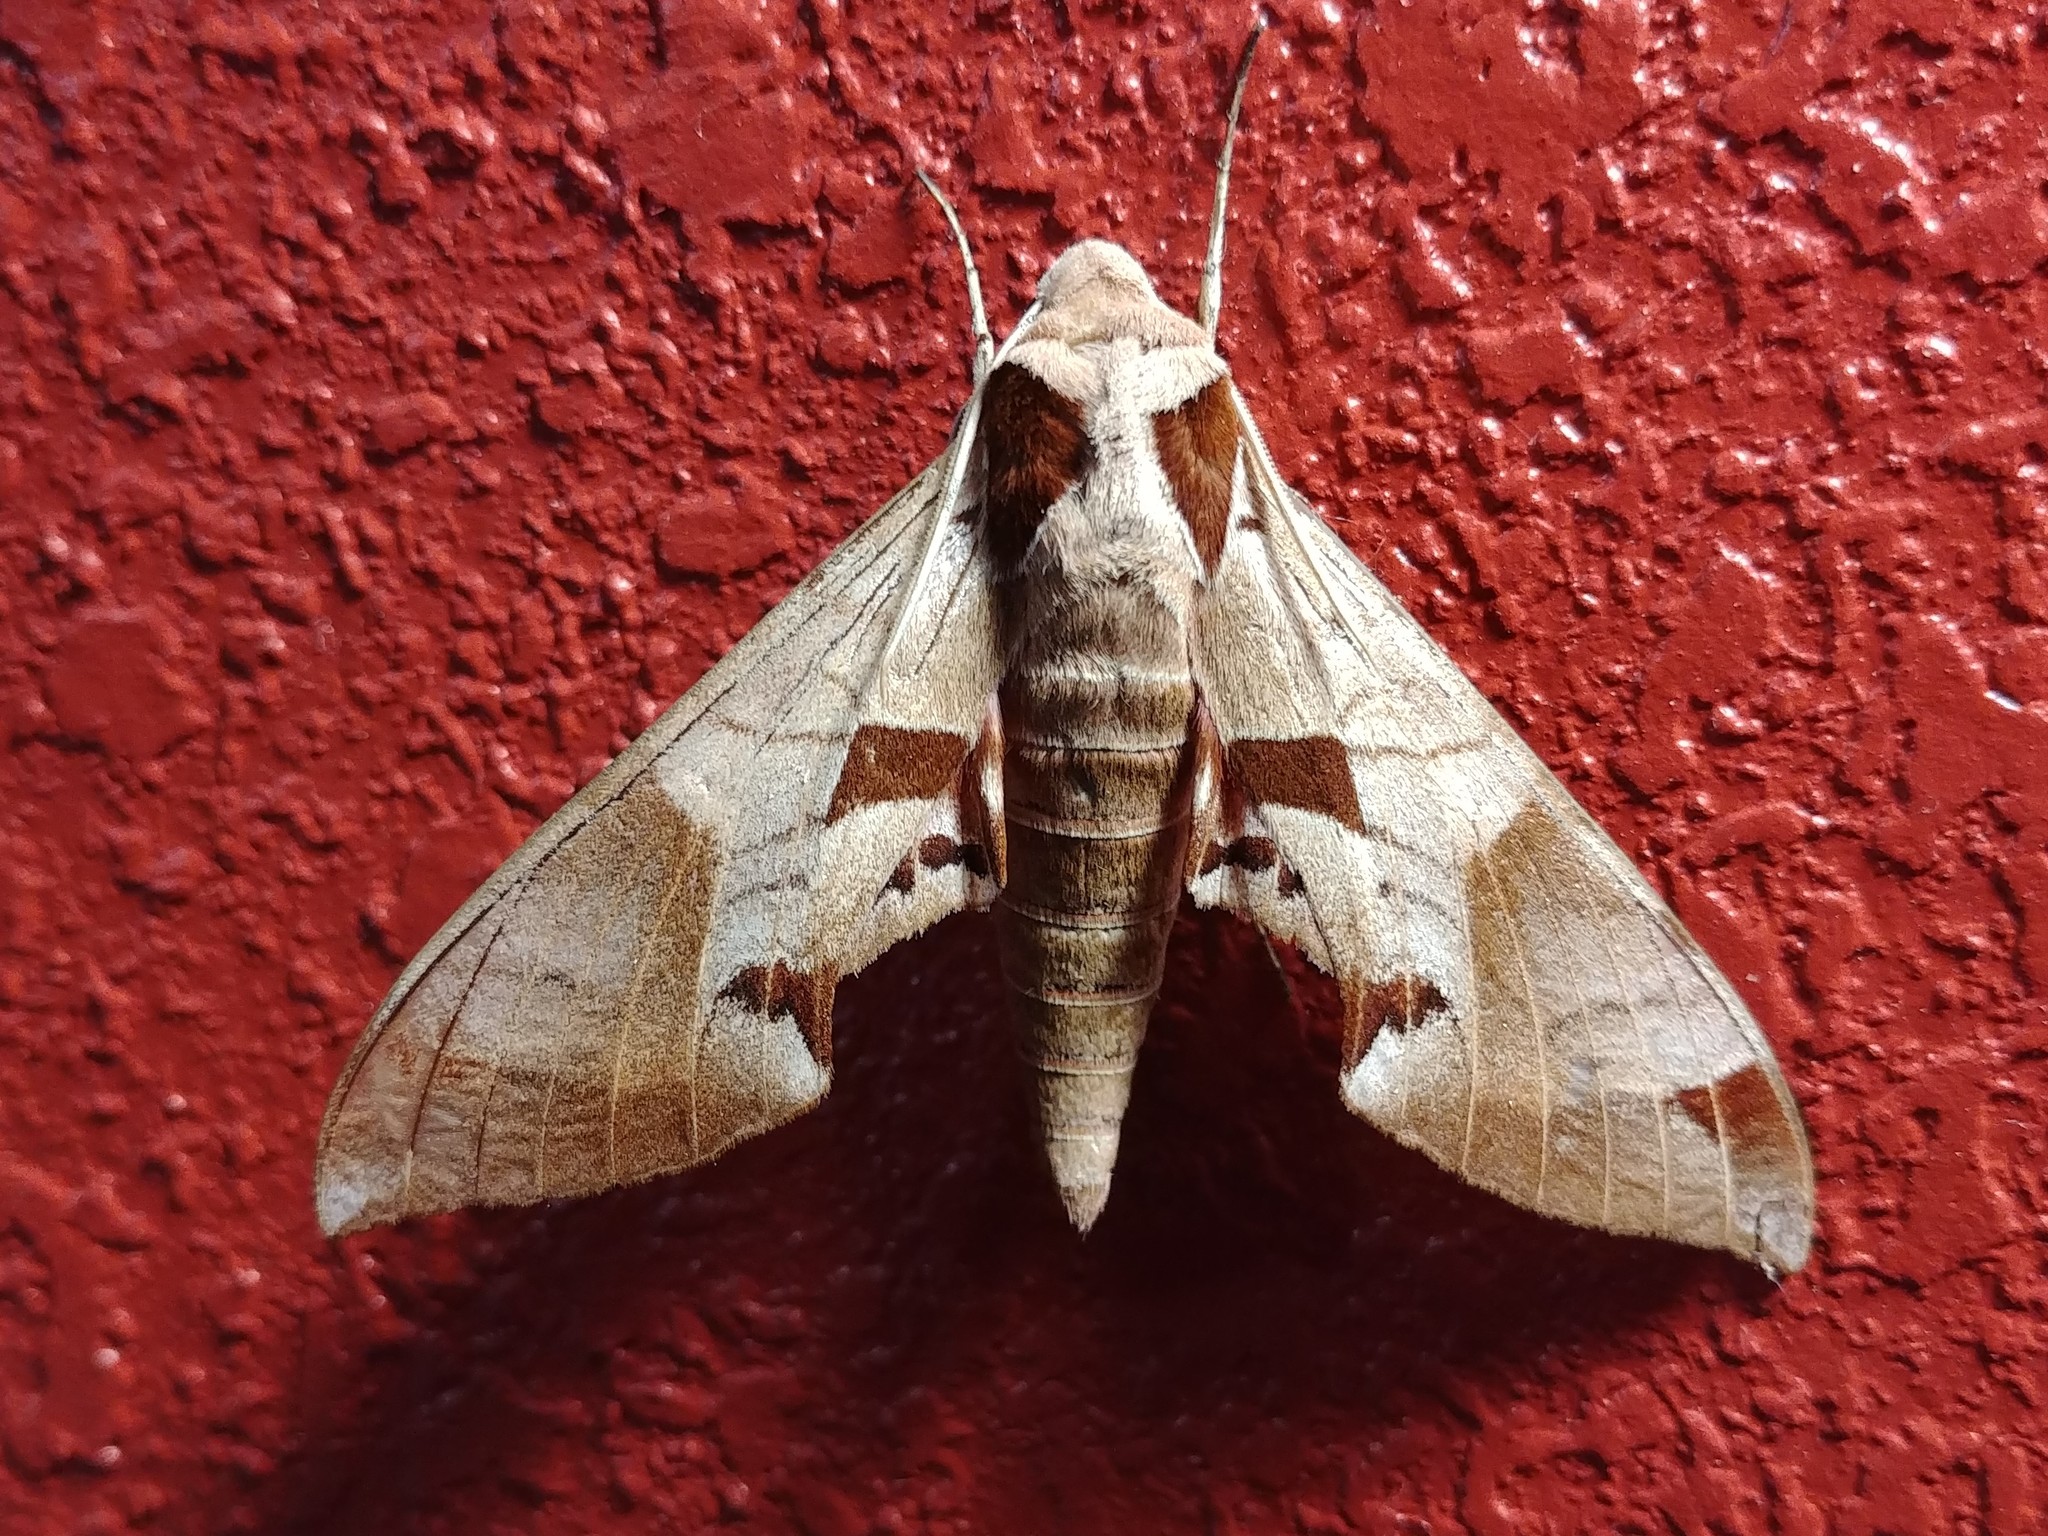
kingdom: Animalia
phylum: Arthropoda
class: Insecta
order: Lepidoptera
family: Sphingidae
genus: Eumorpha
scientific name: Eumorpha achemon
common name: Achemon sphinx
